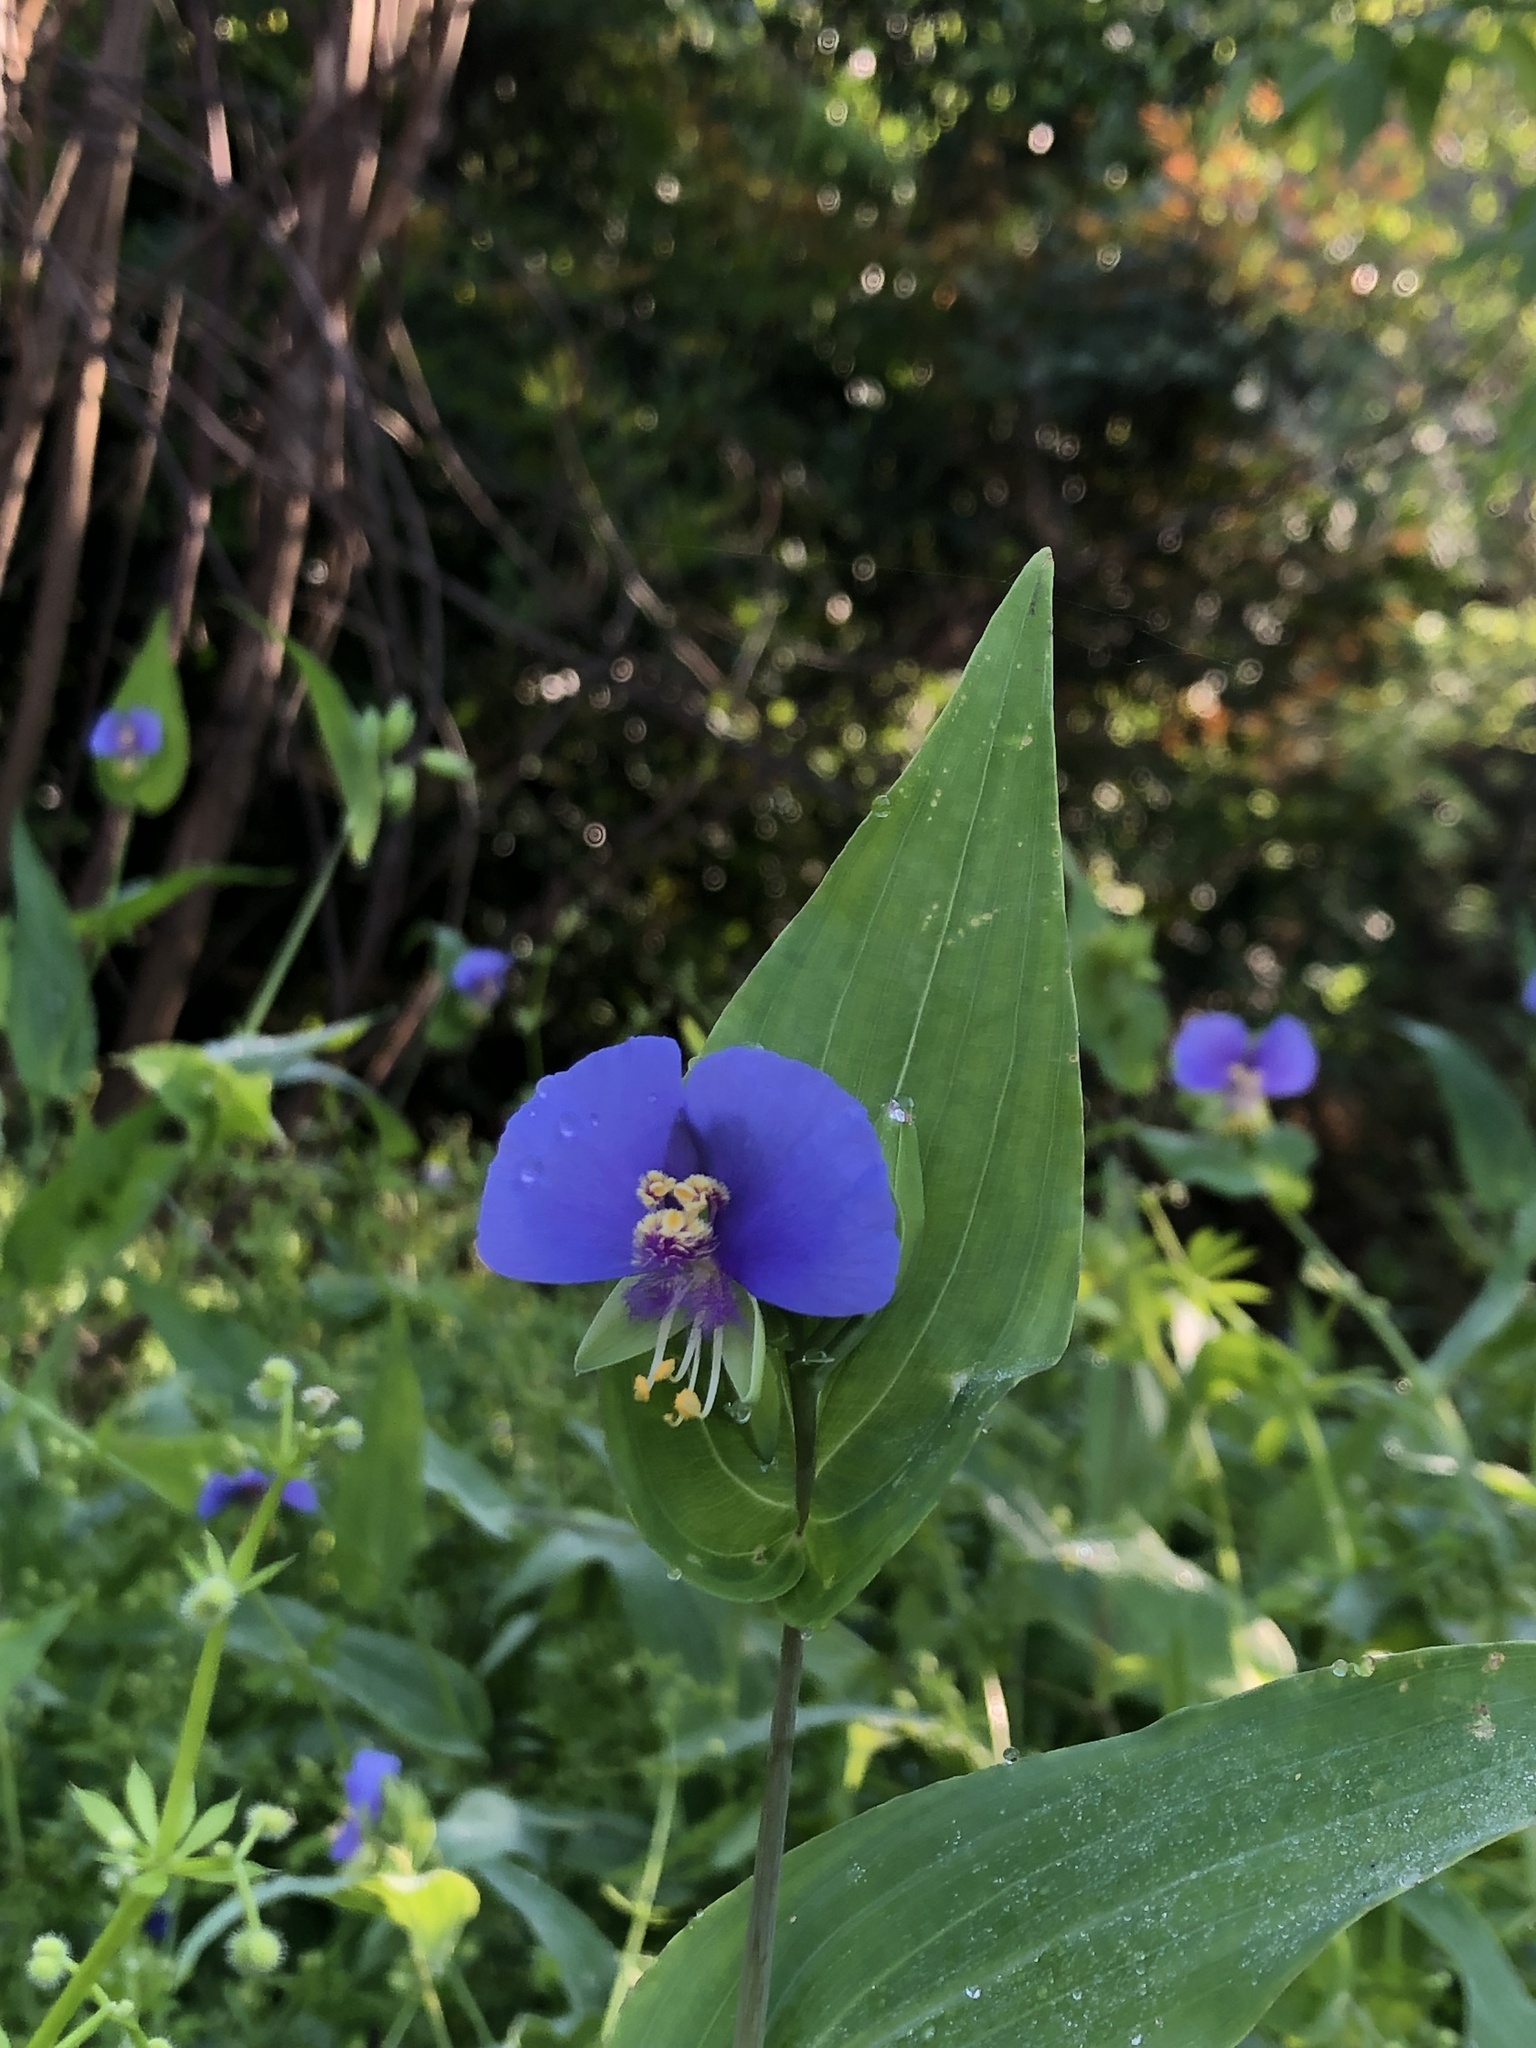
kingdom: Plantae
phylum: Tracheophyta
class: Liliopsida
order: Commelinales
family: Commelinaceae
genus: Tinantia
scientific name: Tinantia anomala
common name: False dayflower
